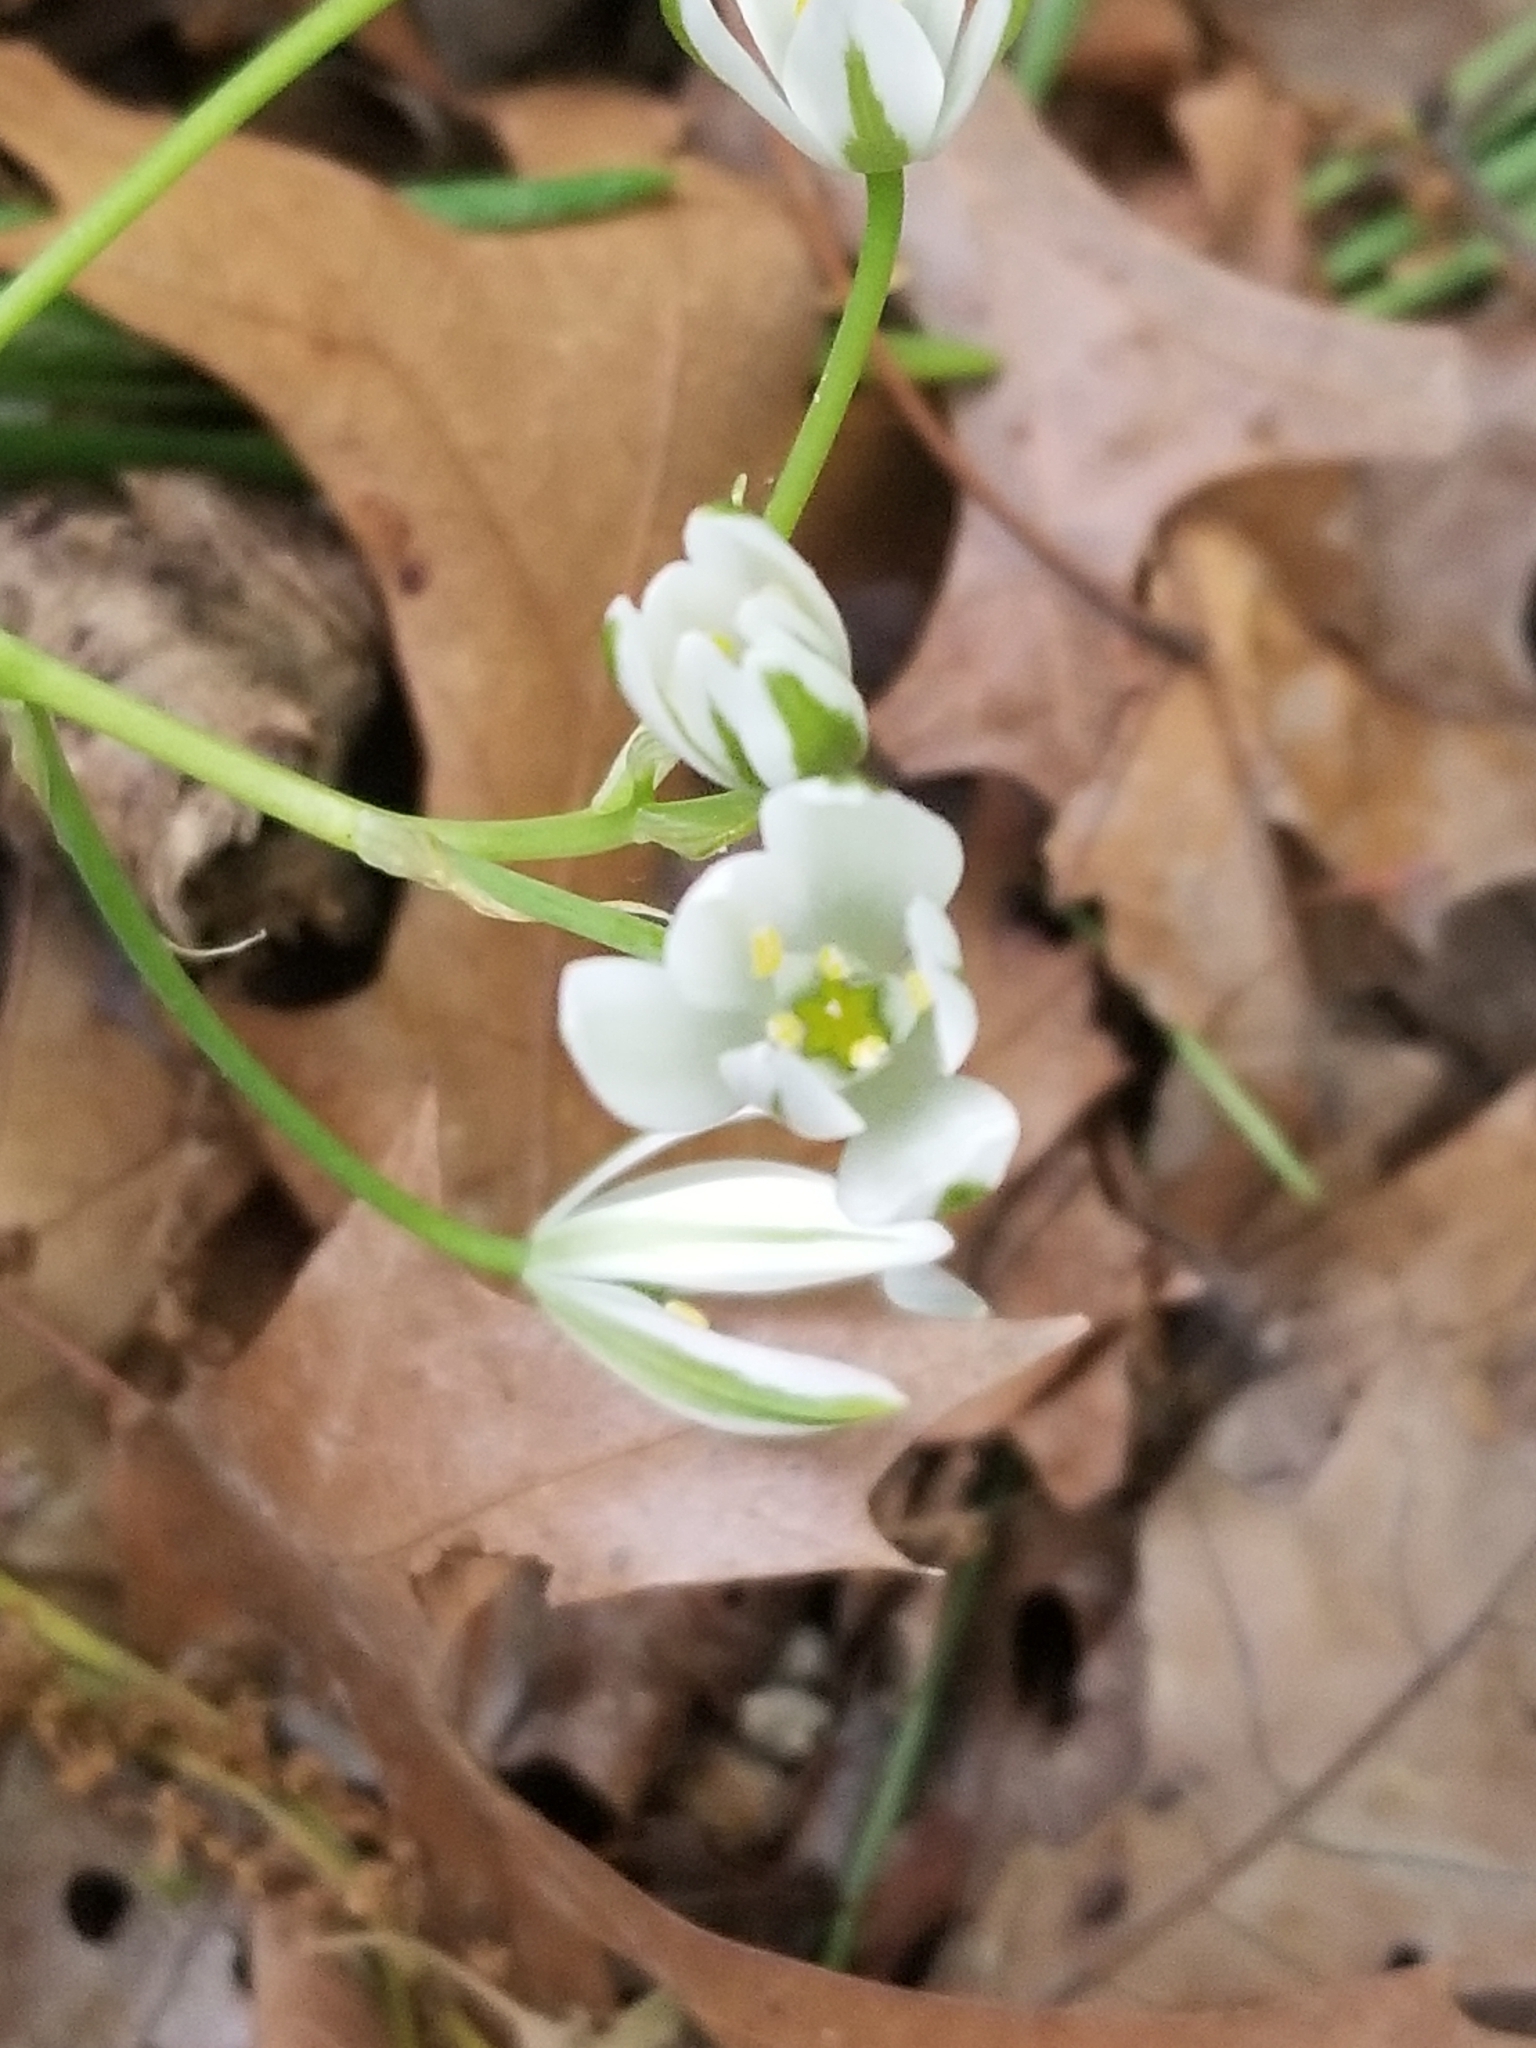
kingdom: Plantae
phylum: Tracheophyta
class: Liliopsida
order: Asparagales
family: Asparagaceae
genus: Ornithogalum
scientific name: Ornithogalum umbellatum
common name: Garden star-of-bethlehem
